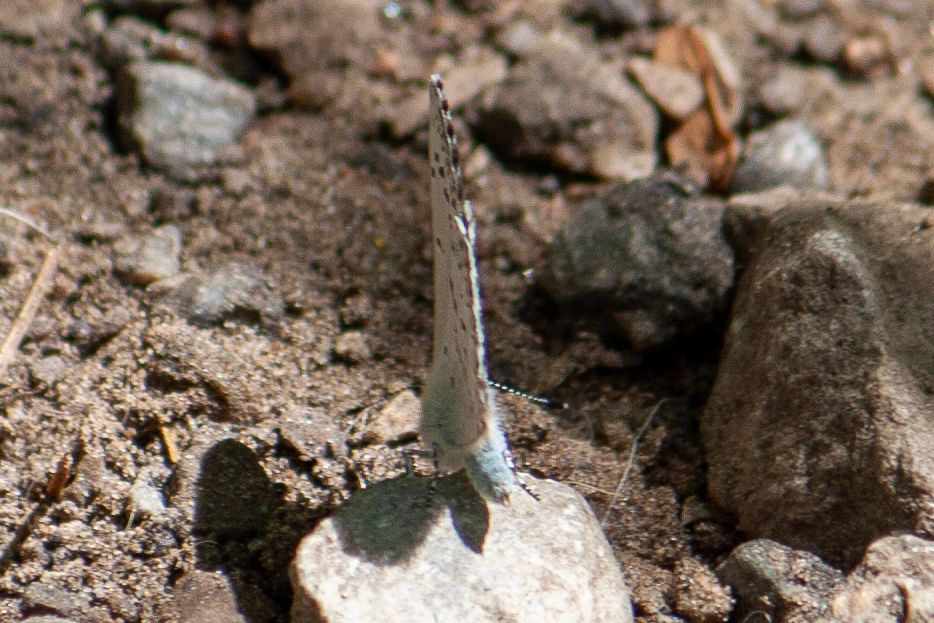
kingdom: Animalia
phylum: Arthropoda
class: Insecta
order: Lepidoptera
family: Lycaenidae
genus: Celastrina
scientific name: Celastrina lucia
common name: Lucia azure
